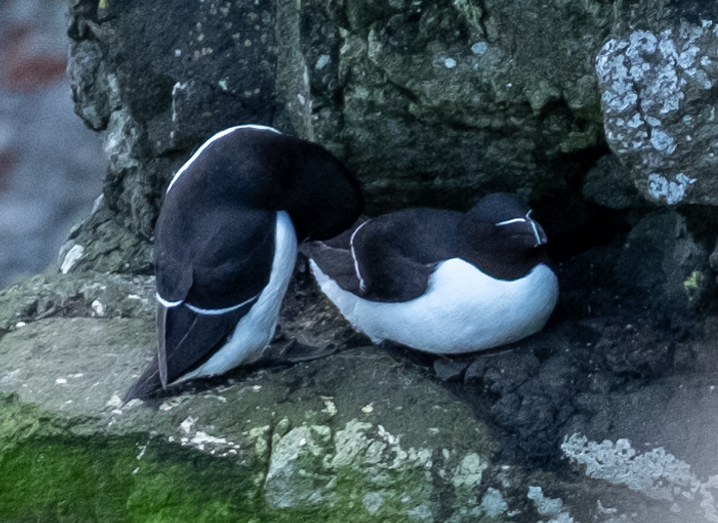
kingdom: Animalia
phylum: Chordata
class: Aves
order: Charadriiformes
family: Alcidae
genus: Alca
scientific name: Alca torda
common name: Razorbill
